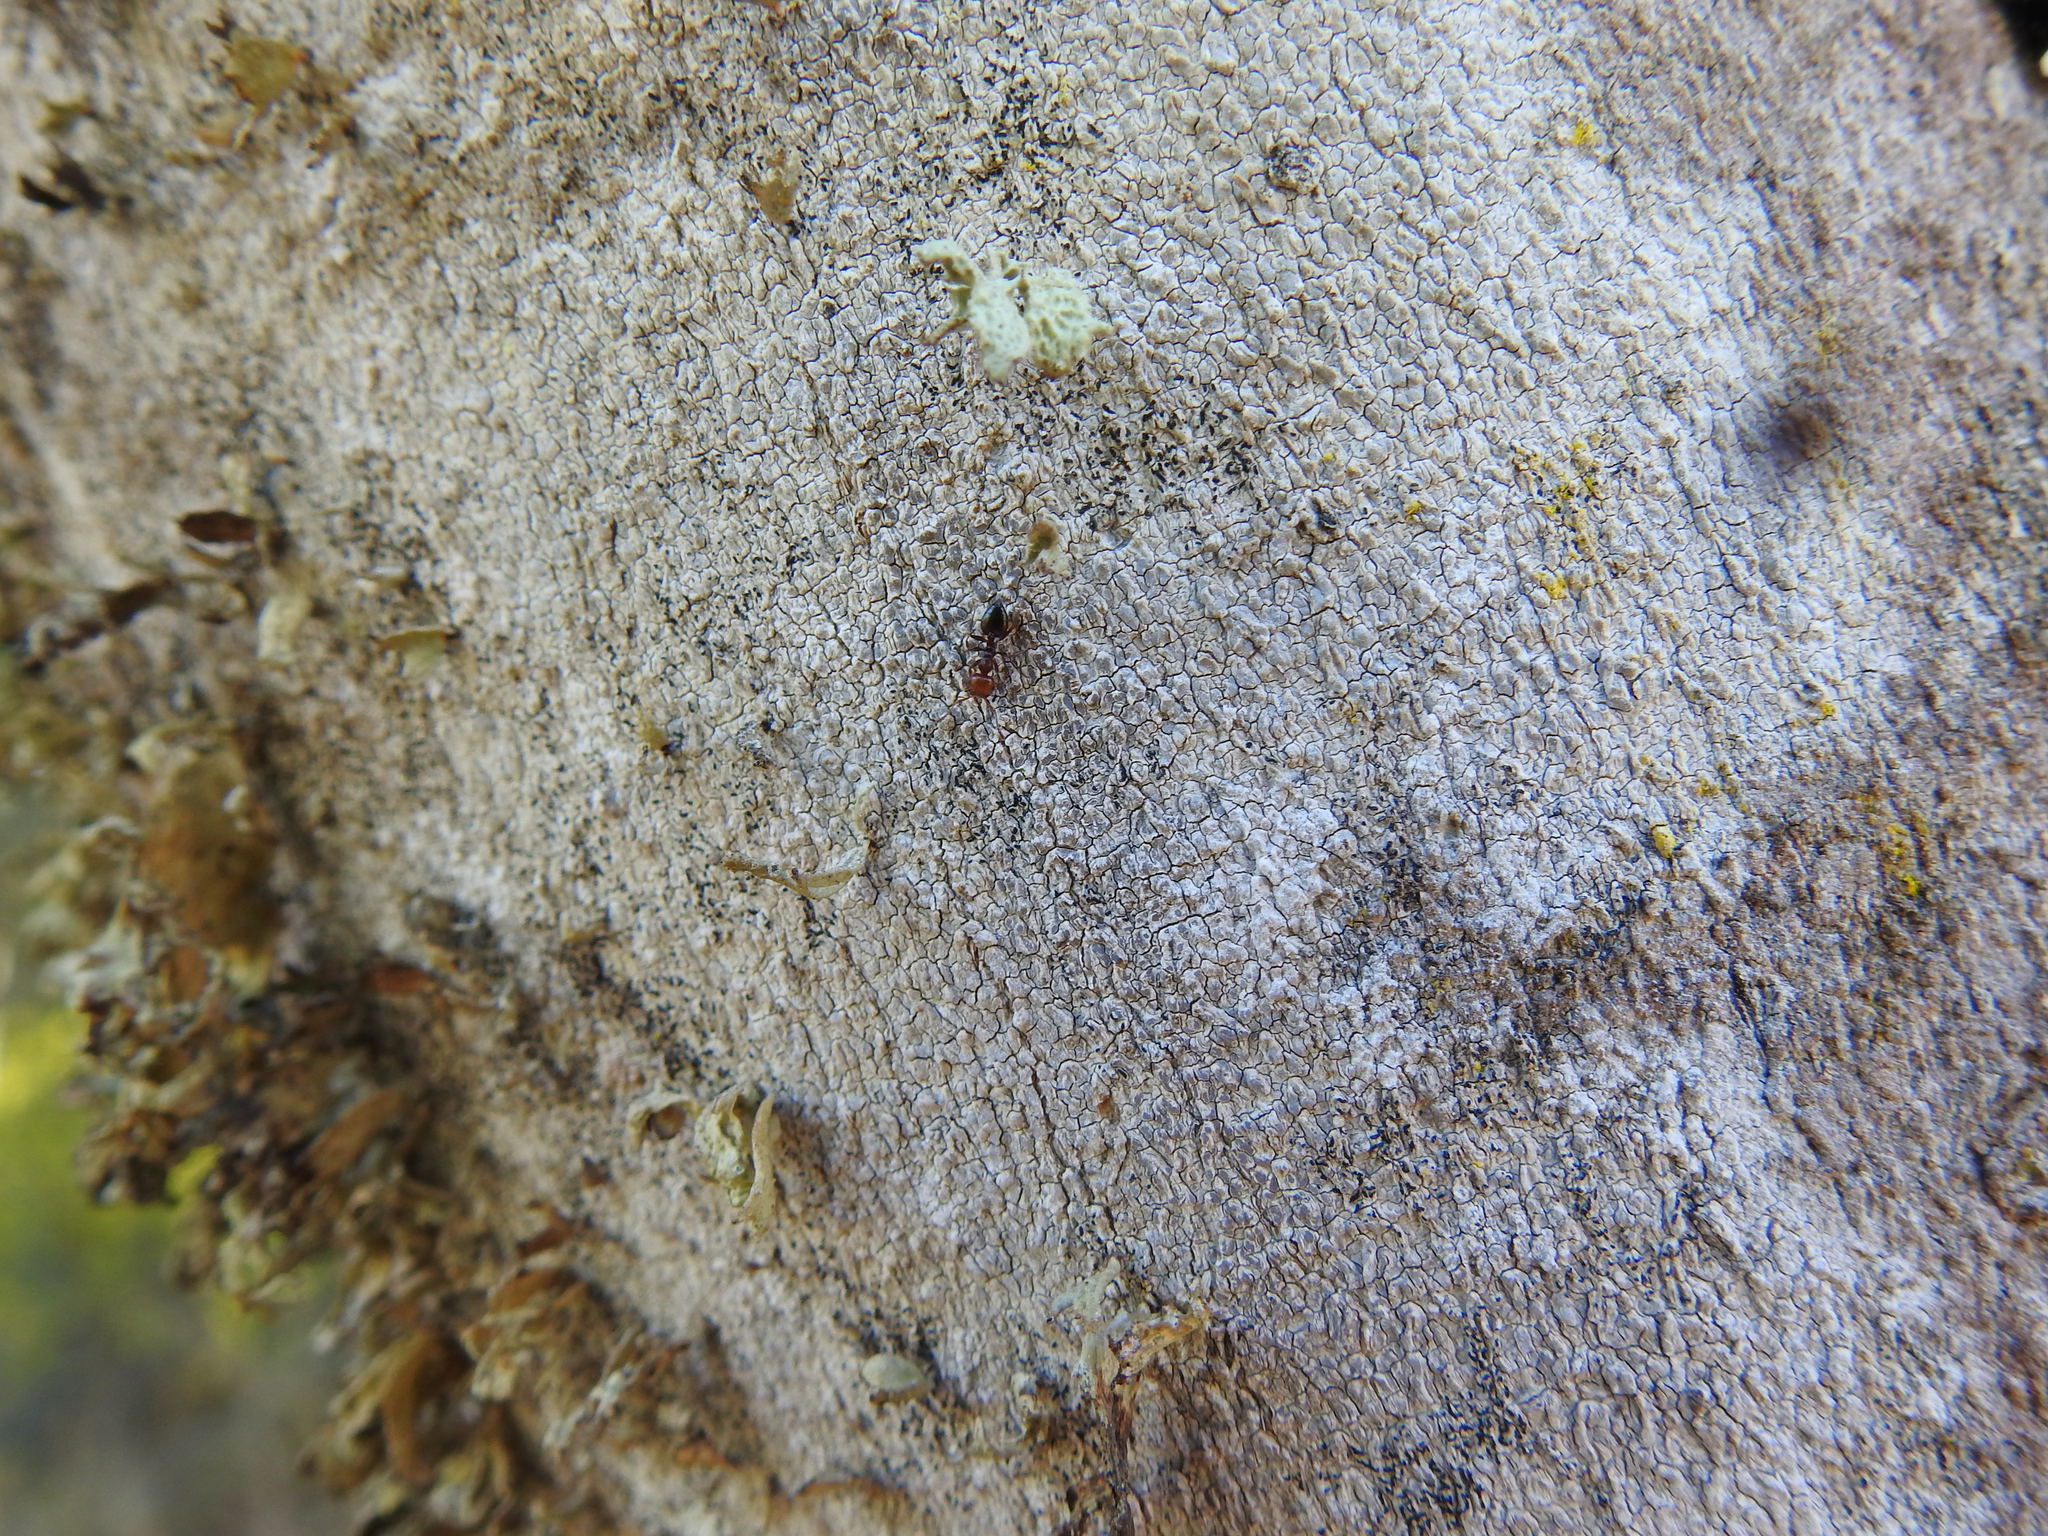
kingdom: Animalia
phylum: Arthropoda
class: Insecta
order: Hymenoptera
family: Formicidae
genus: Crematogaster
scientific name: Crematogaster scutellaris
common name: Fourmi du liège
